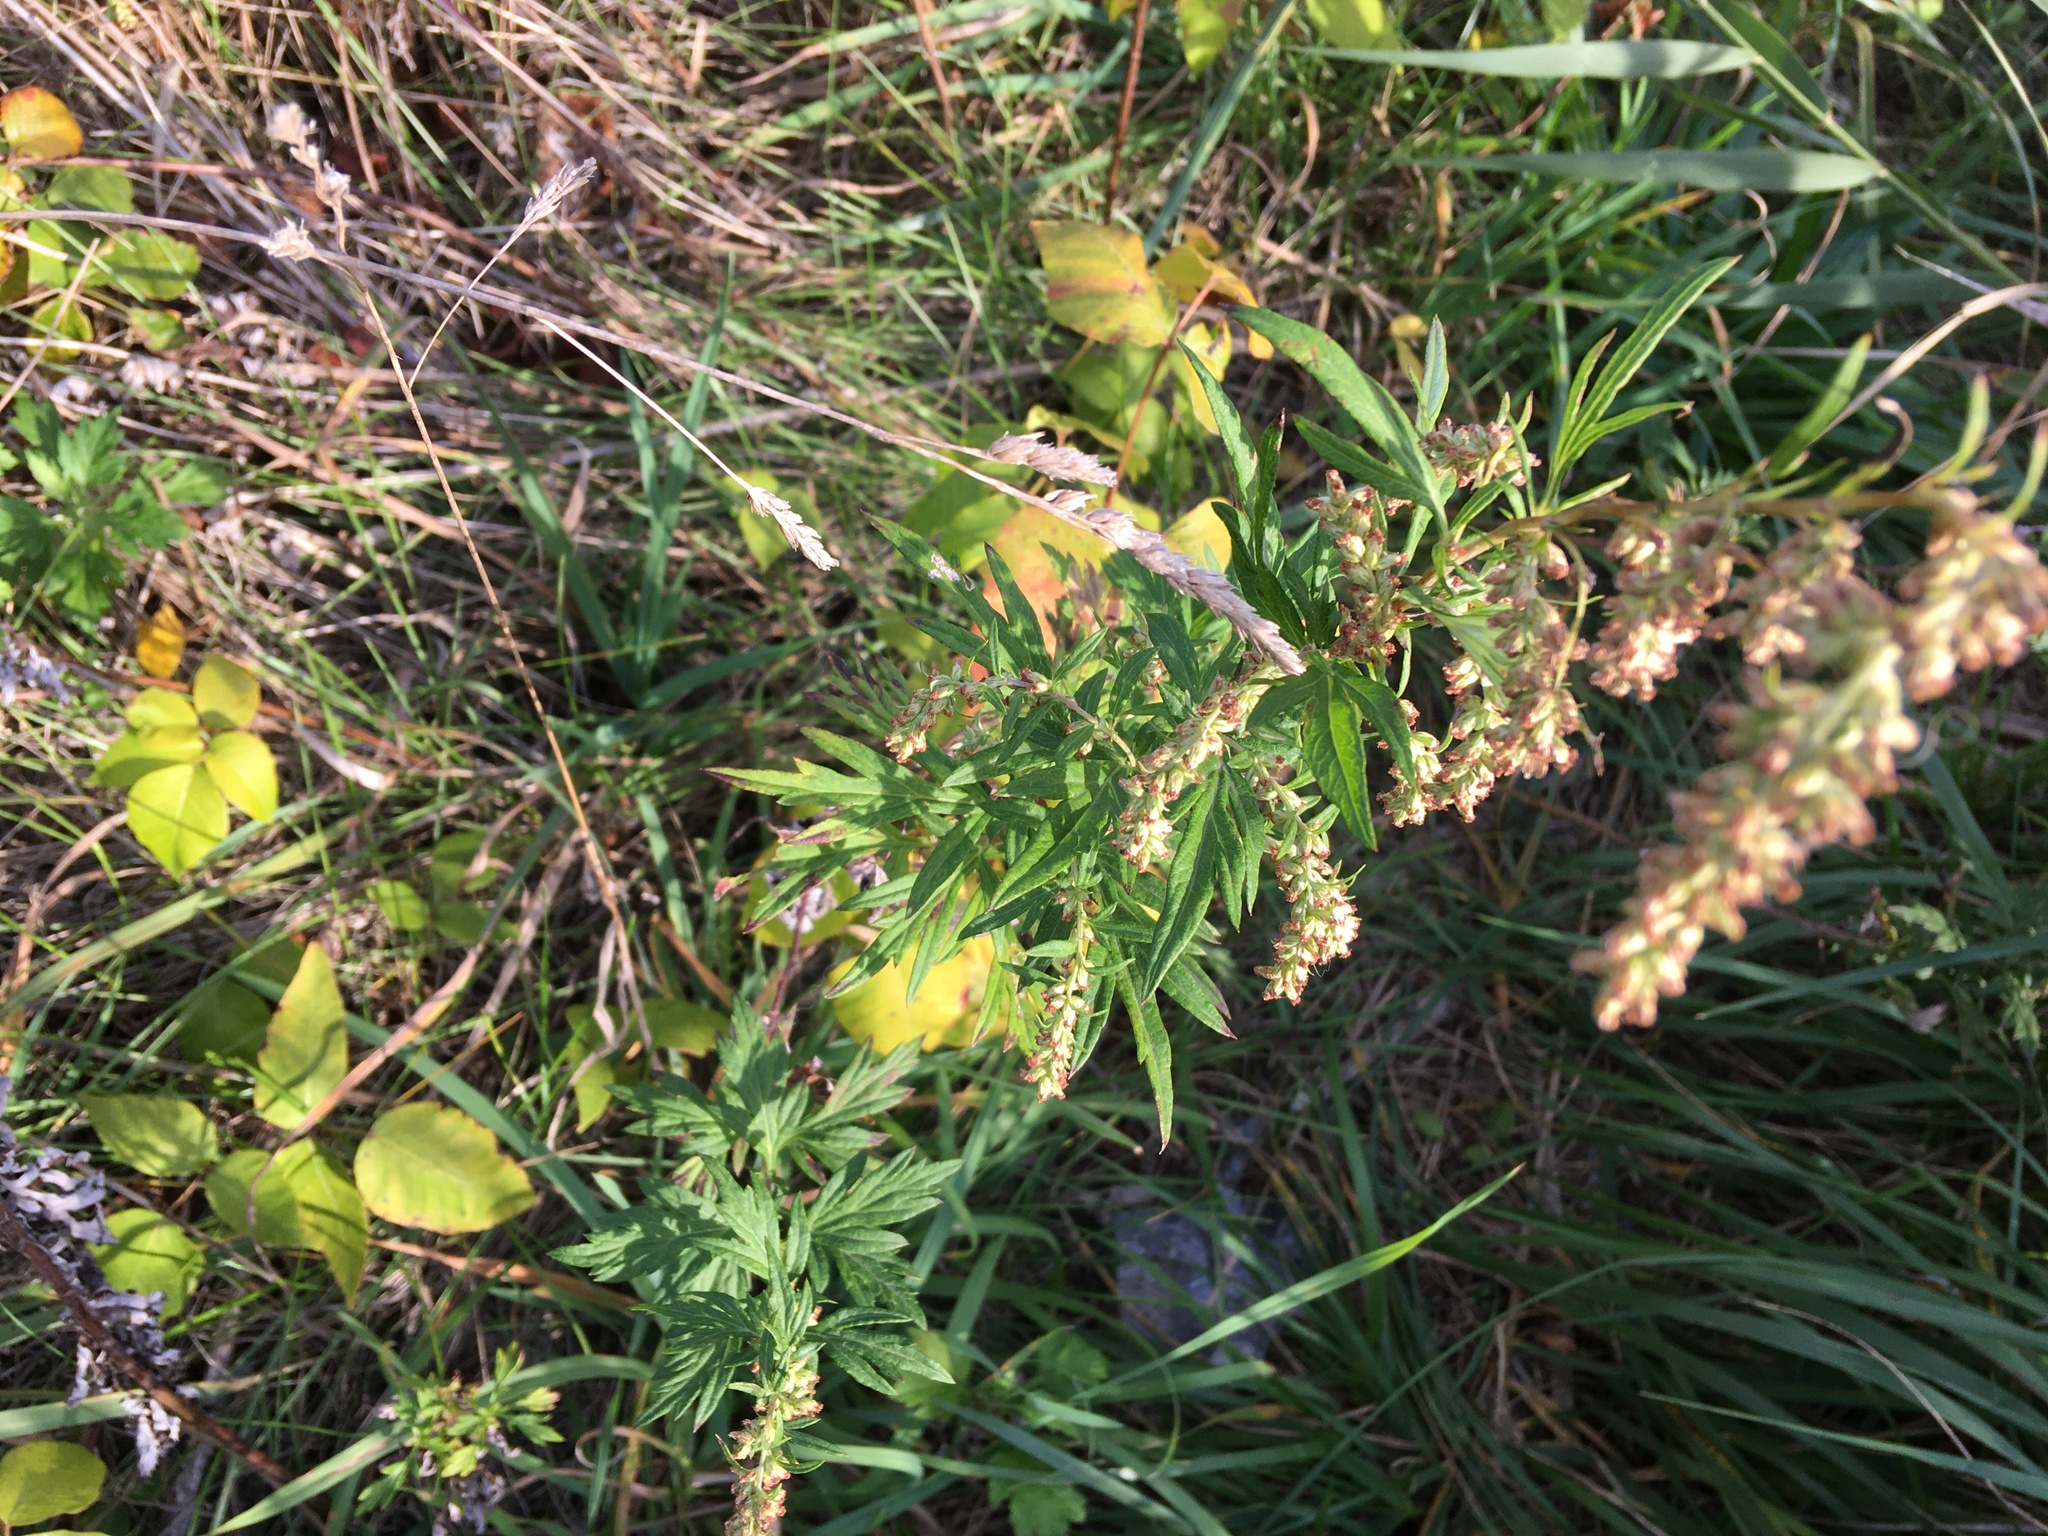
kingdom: Plantae
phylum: Tracheophyta
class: Magnoliopsida
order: Asterales
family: Asteraceae
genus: Artemisia
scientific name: Artemisia vulgaris
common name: Mugwort
